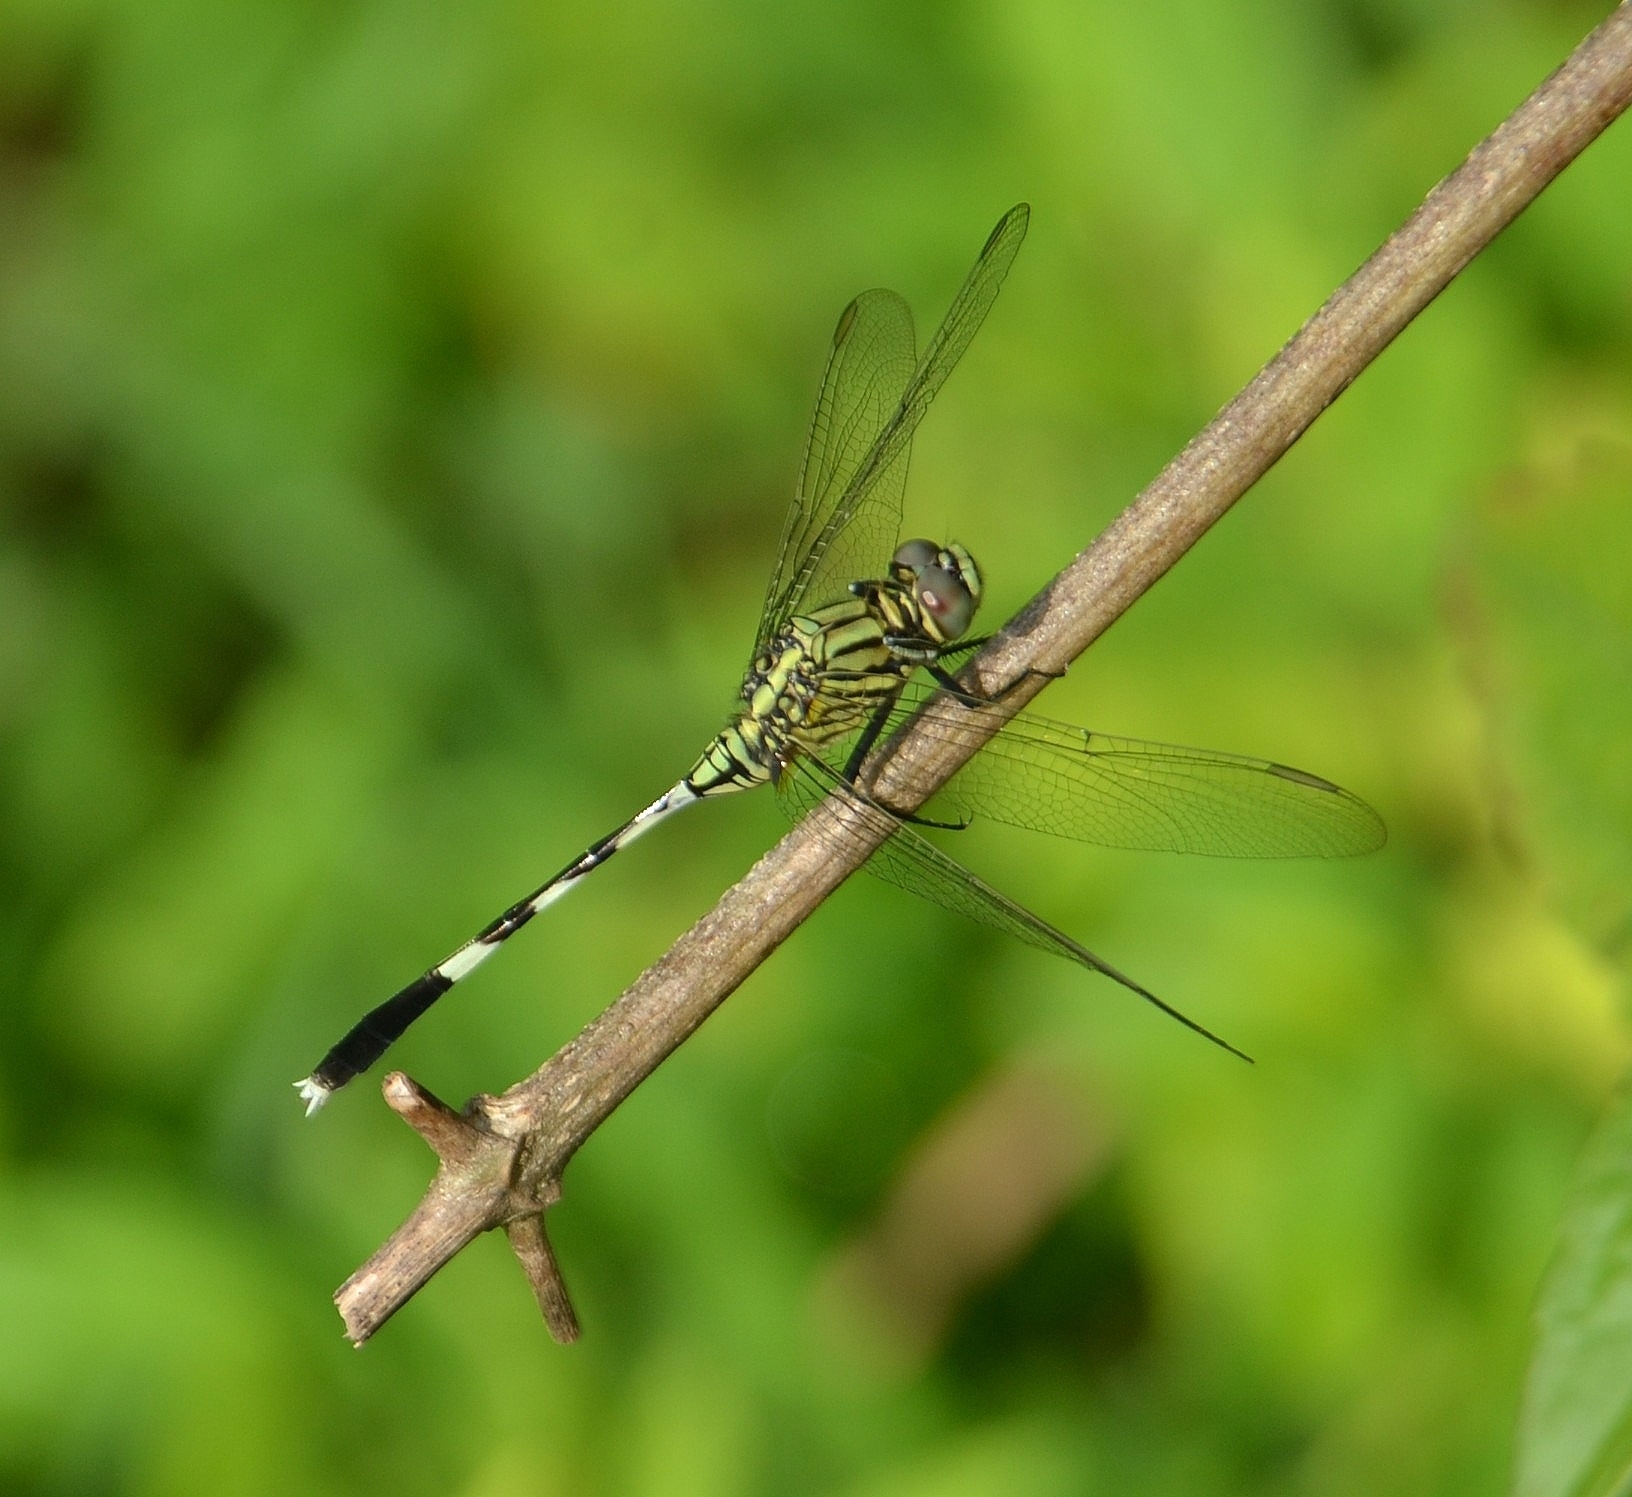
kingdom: Animalia
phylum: Arthropoda
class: Insecta
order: Odonata
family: Libellulidae
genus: Orthetrum
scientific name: Orthetrum sabina
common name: Slender skimmer
